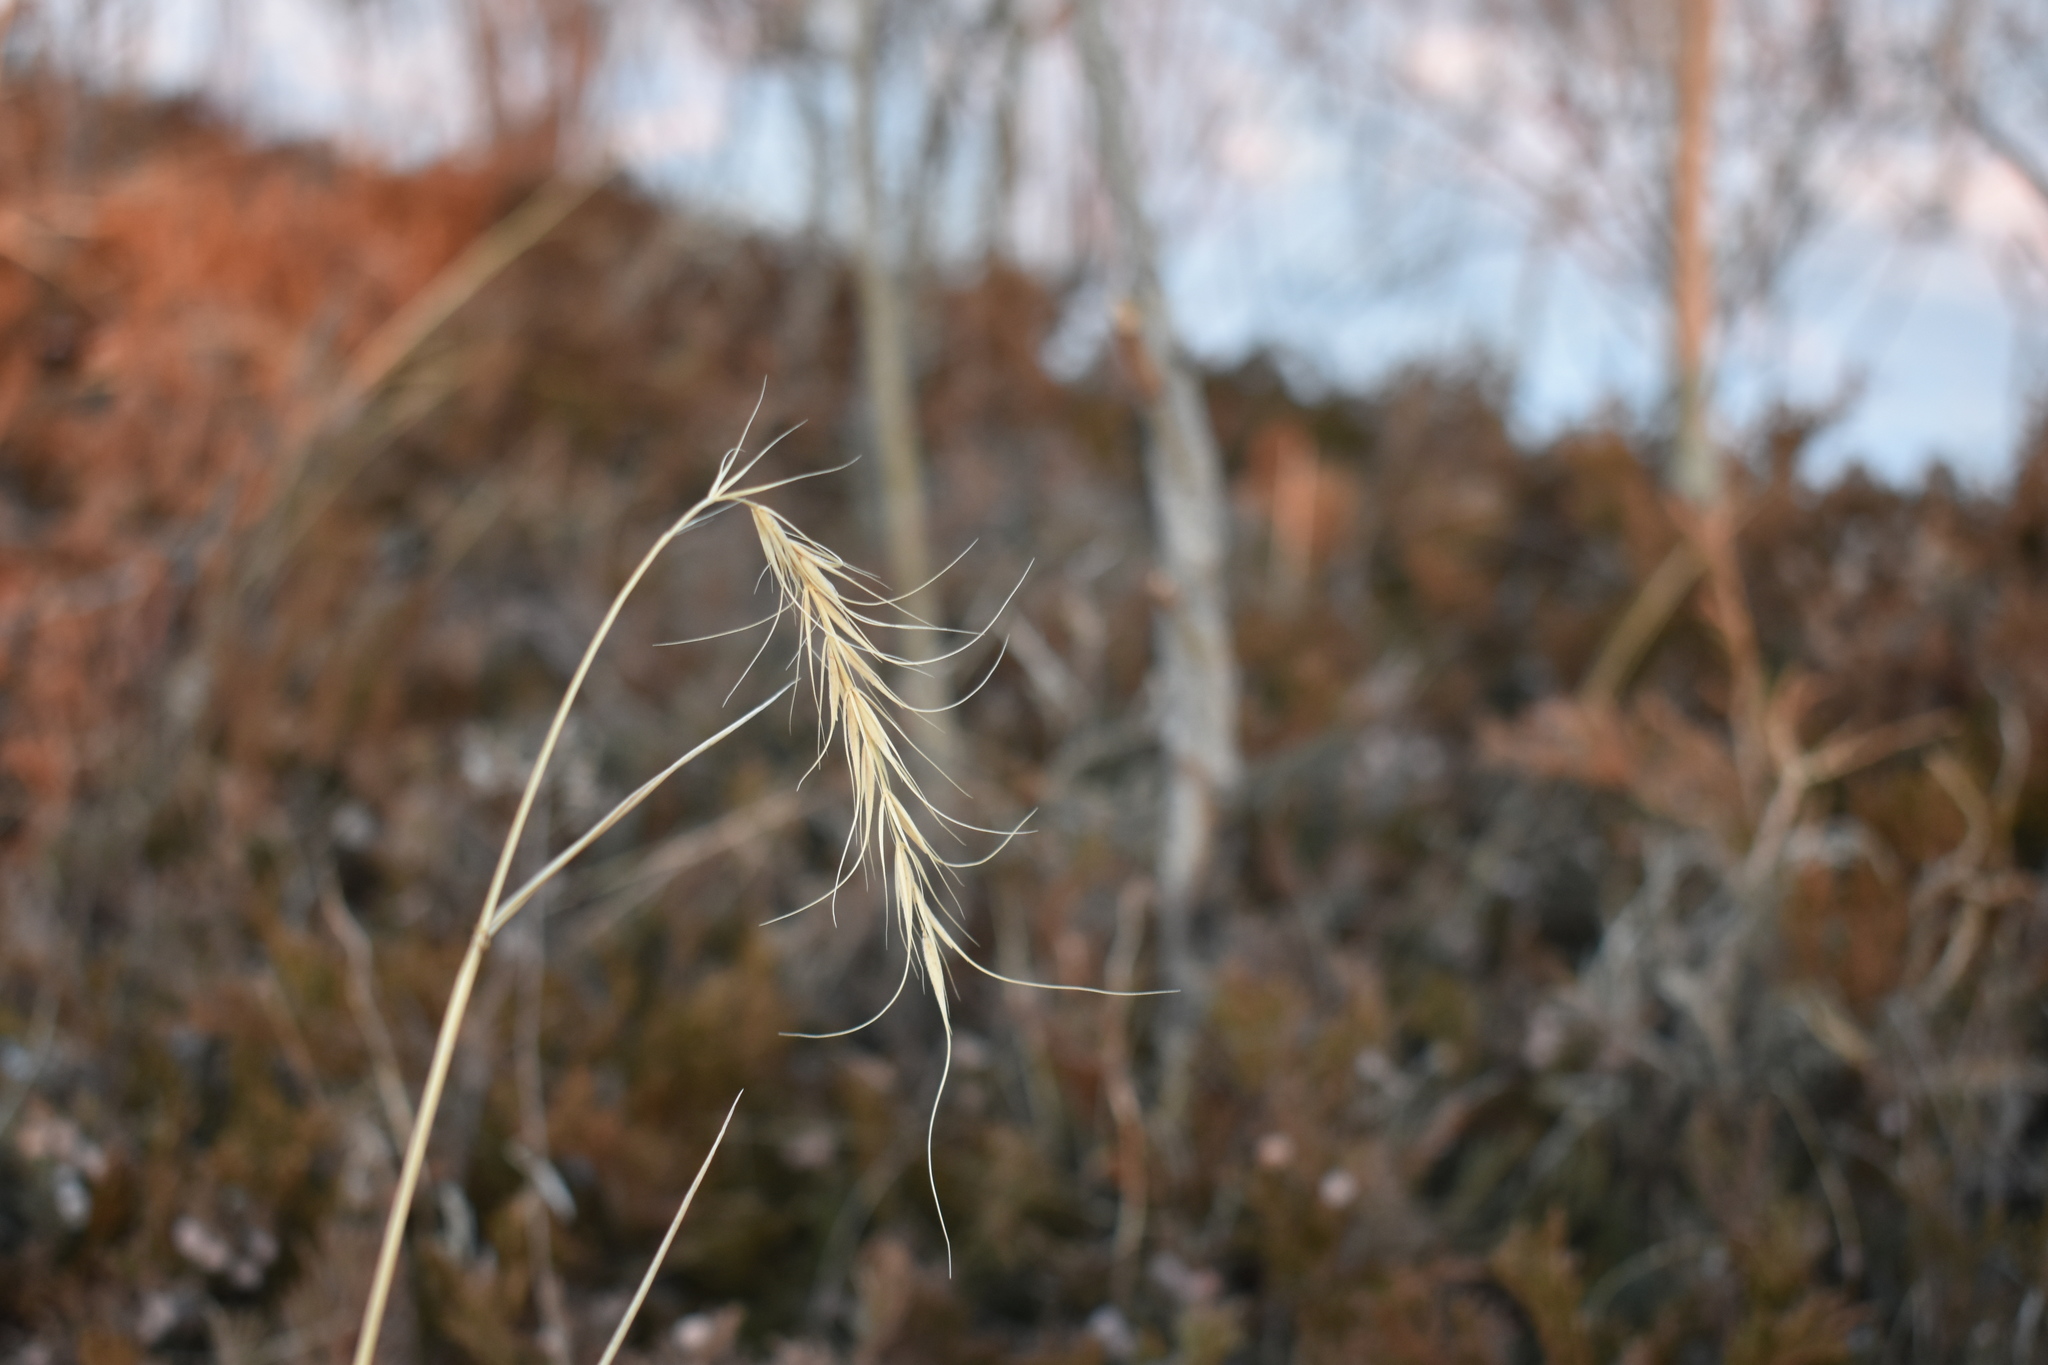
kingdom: Plantae
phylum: Tracheophyta
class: Liliopsida
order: Poales
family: Poaceae
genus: Elymus
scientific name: Elymus canadensis
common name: Canada wild rye
